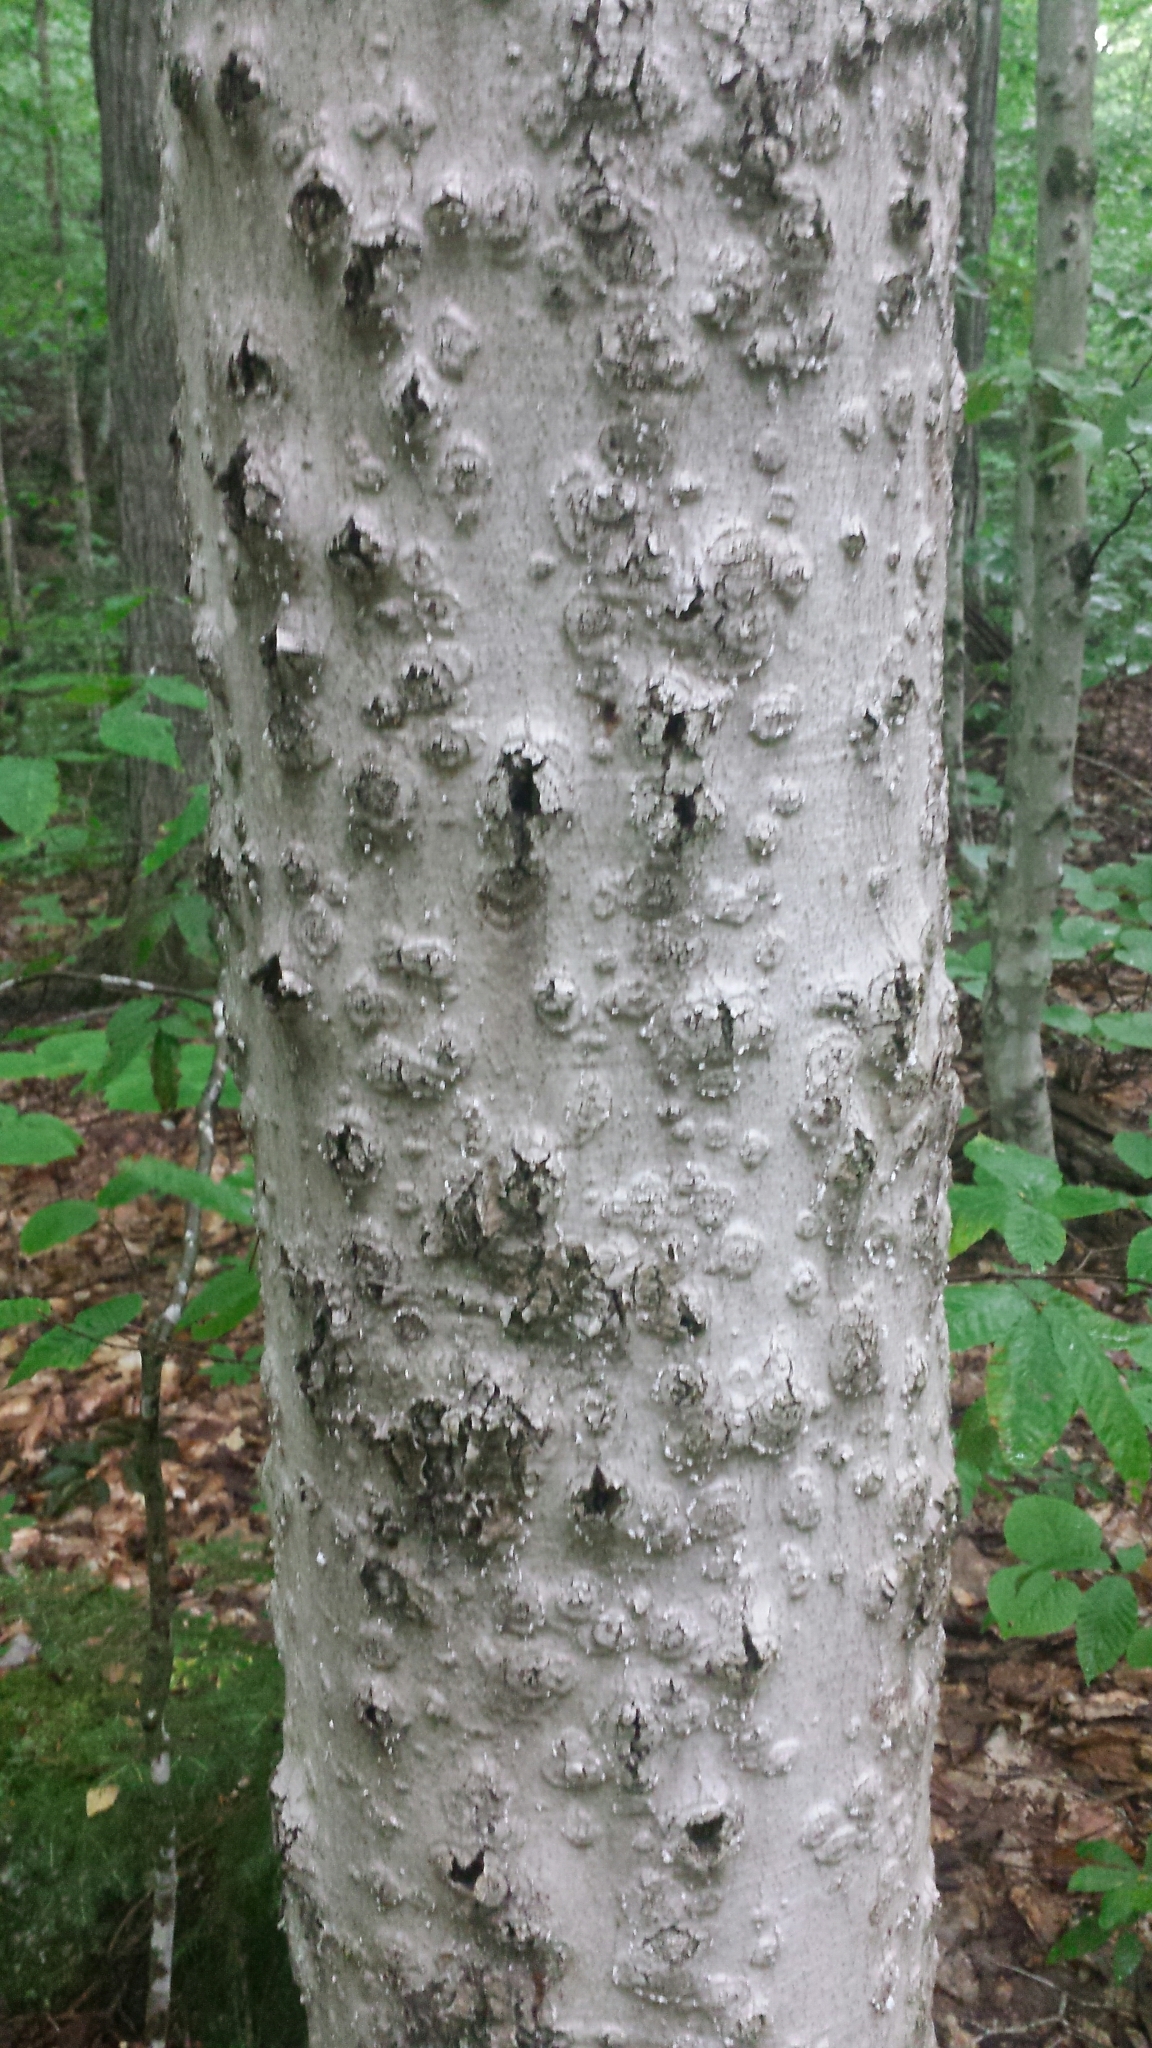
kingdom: Animalia
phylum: Arthropoda
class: Insecta
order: Hemiptera
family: Eriococcidae
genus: Cryptococcus
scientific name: Cryptococcus fagisuga
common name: Beech scale
